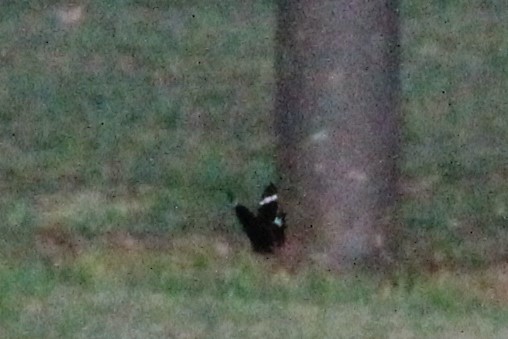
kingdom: Animalia
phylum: Arthropoda
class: Insecta
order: Lepidoptera
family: Papilionidae
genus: Papilio
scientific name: Papilio aegeus
